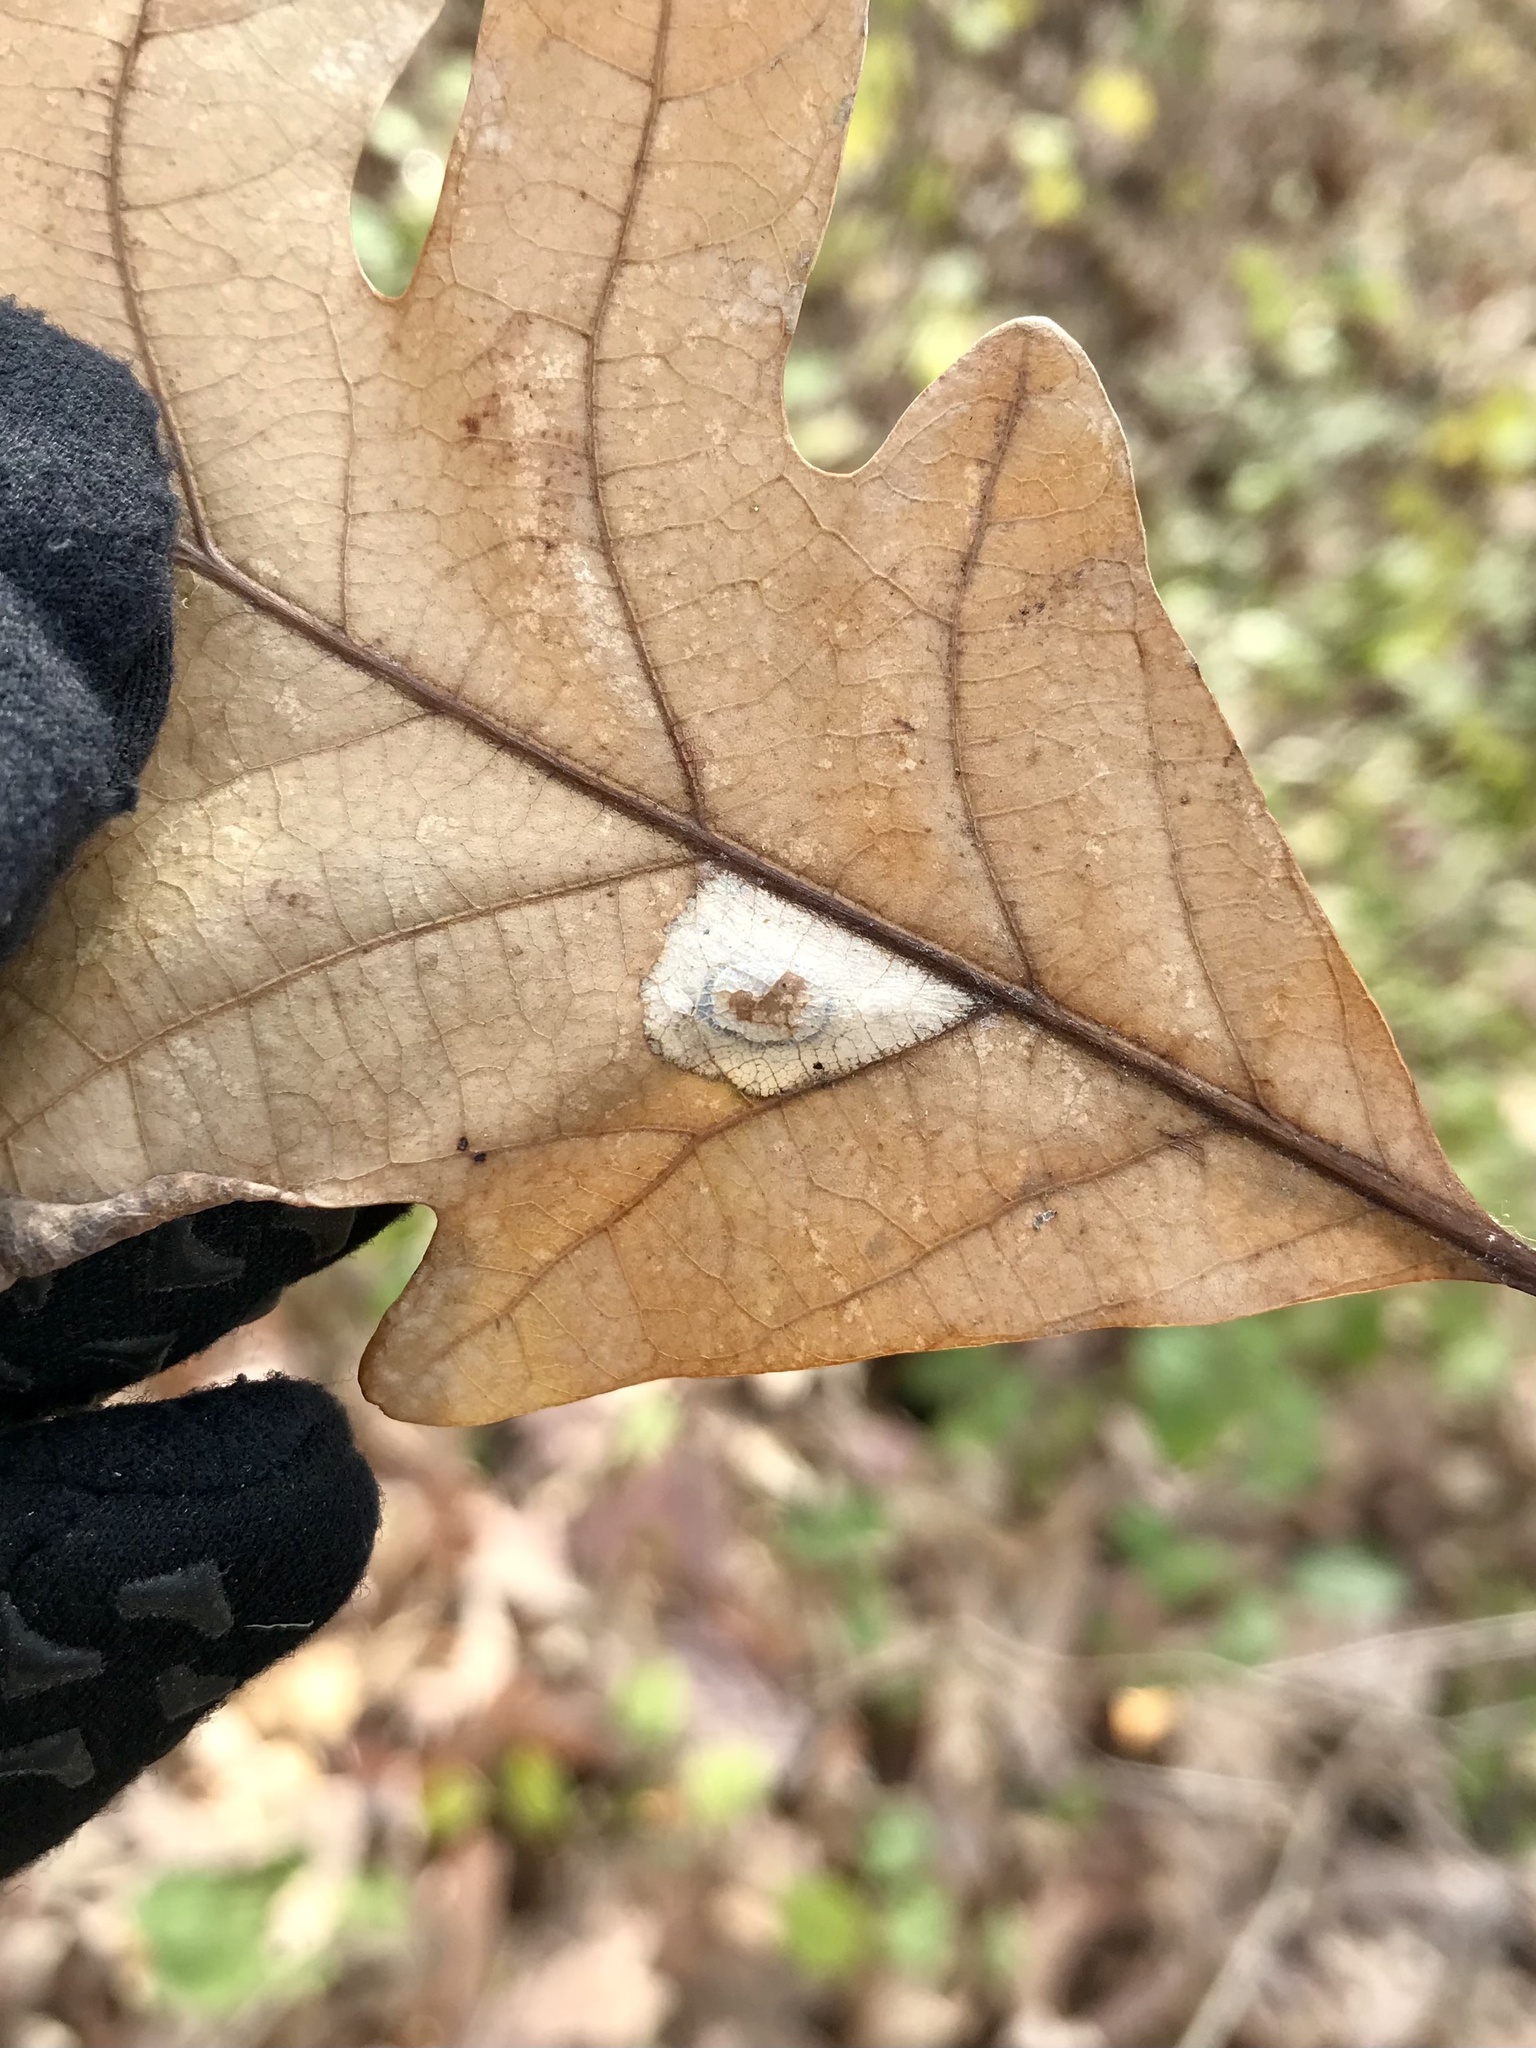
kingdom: Animalia
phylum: Arthropoda
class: Insecta
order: Lepidoptera
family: Gracillariidae
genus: Phyllonorycter
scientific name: Phyllonorycter basistrigella
